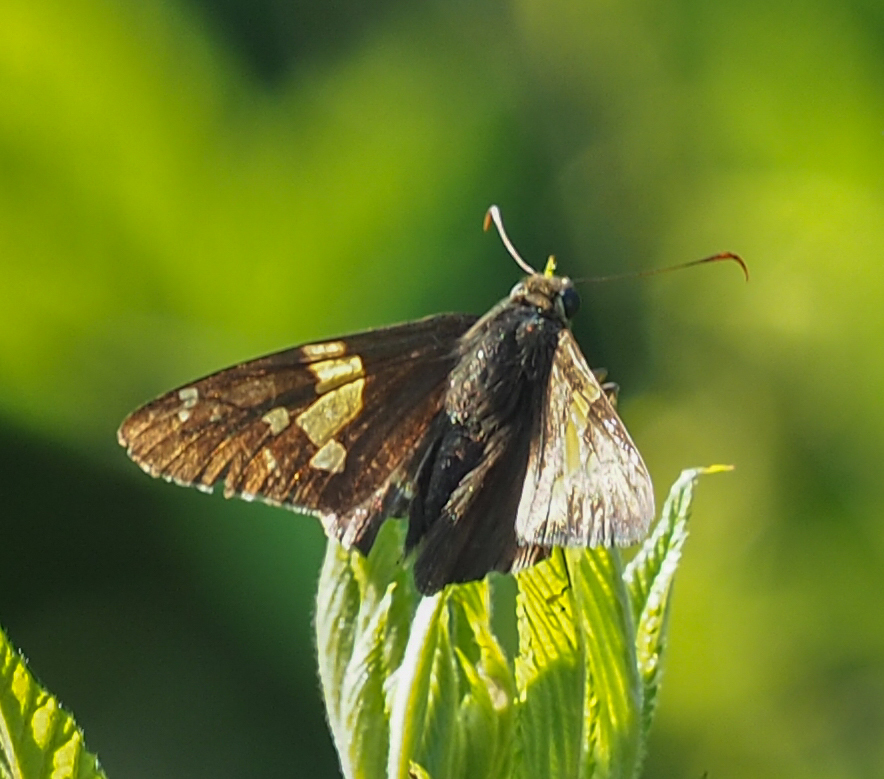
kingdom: Animalia
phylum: Arthropoda
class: Insecta
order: Lepidoptera
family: Hesperiidae
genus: Epargyreus
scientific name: Epargyreus clarus
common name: Silver-spotted skipper
